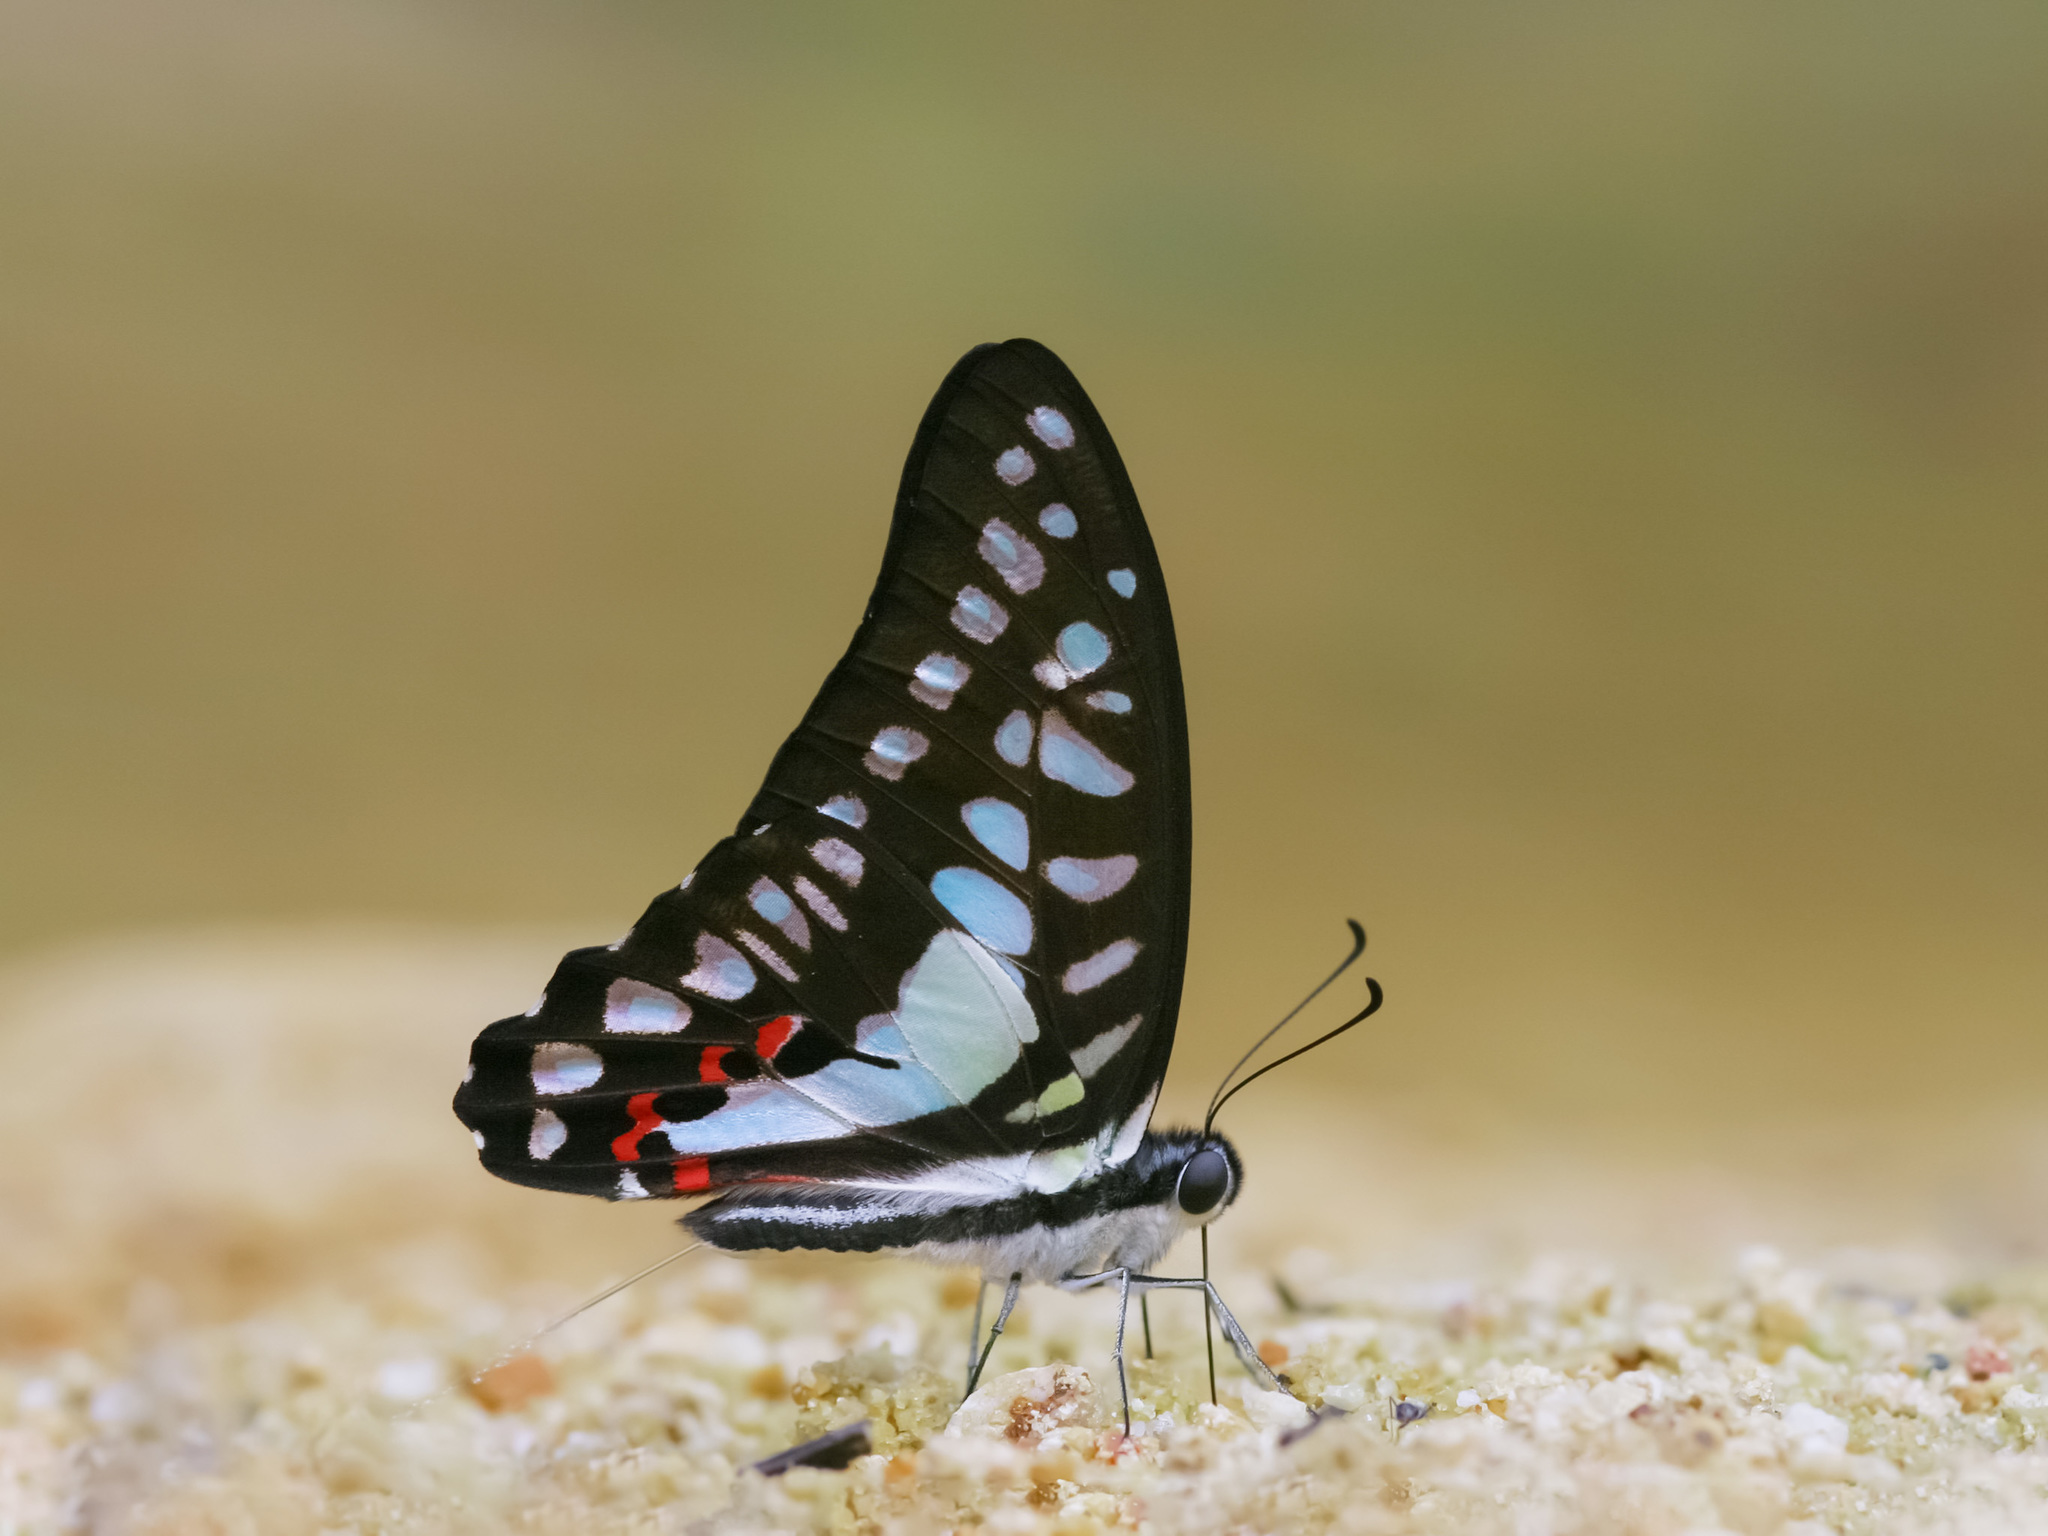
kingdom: Animalia
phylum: Arthropoda
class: Insecta
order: Lepidoptera
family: Papilionidae
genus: Graphium
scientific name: Graphium evemon
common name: Lesser jay
